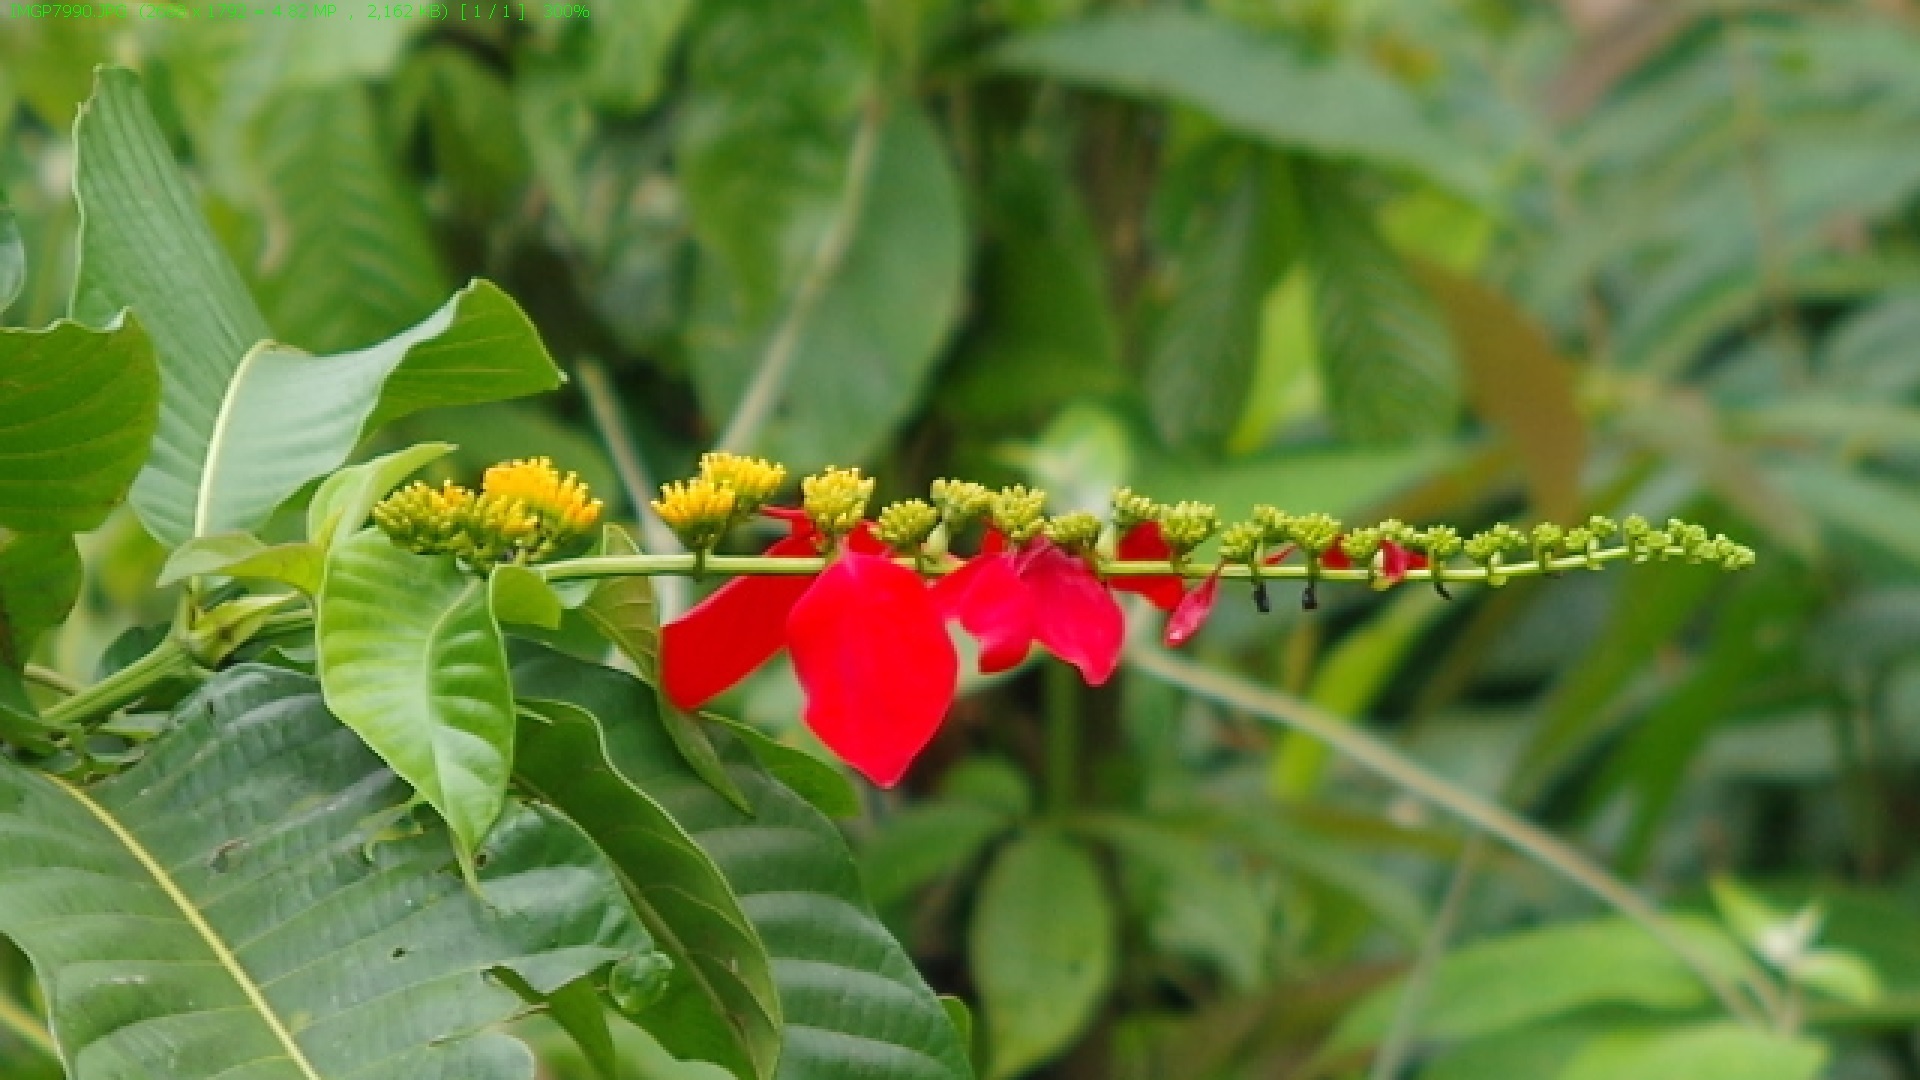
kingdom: Plantae
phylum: Tracheophyta
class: Magnoliopsida
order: Gentianales
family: Rubiaceae
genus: Warszewiczia
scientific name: Warszewiczia coccinea
